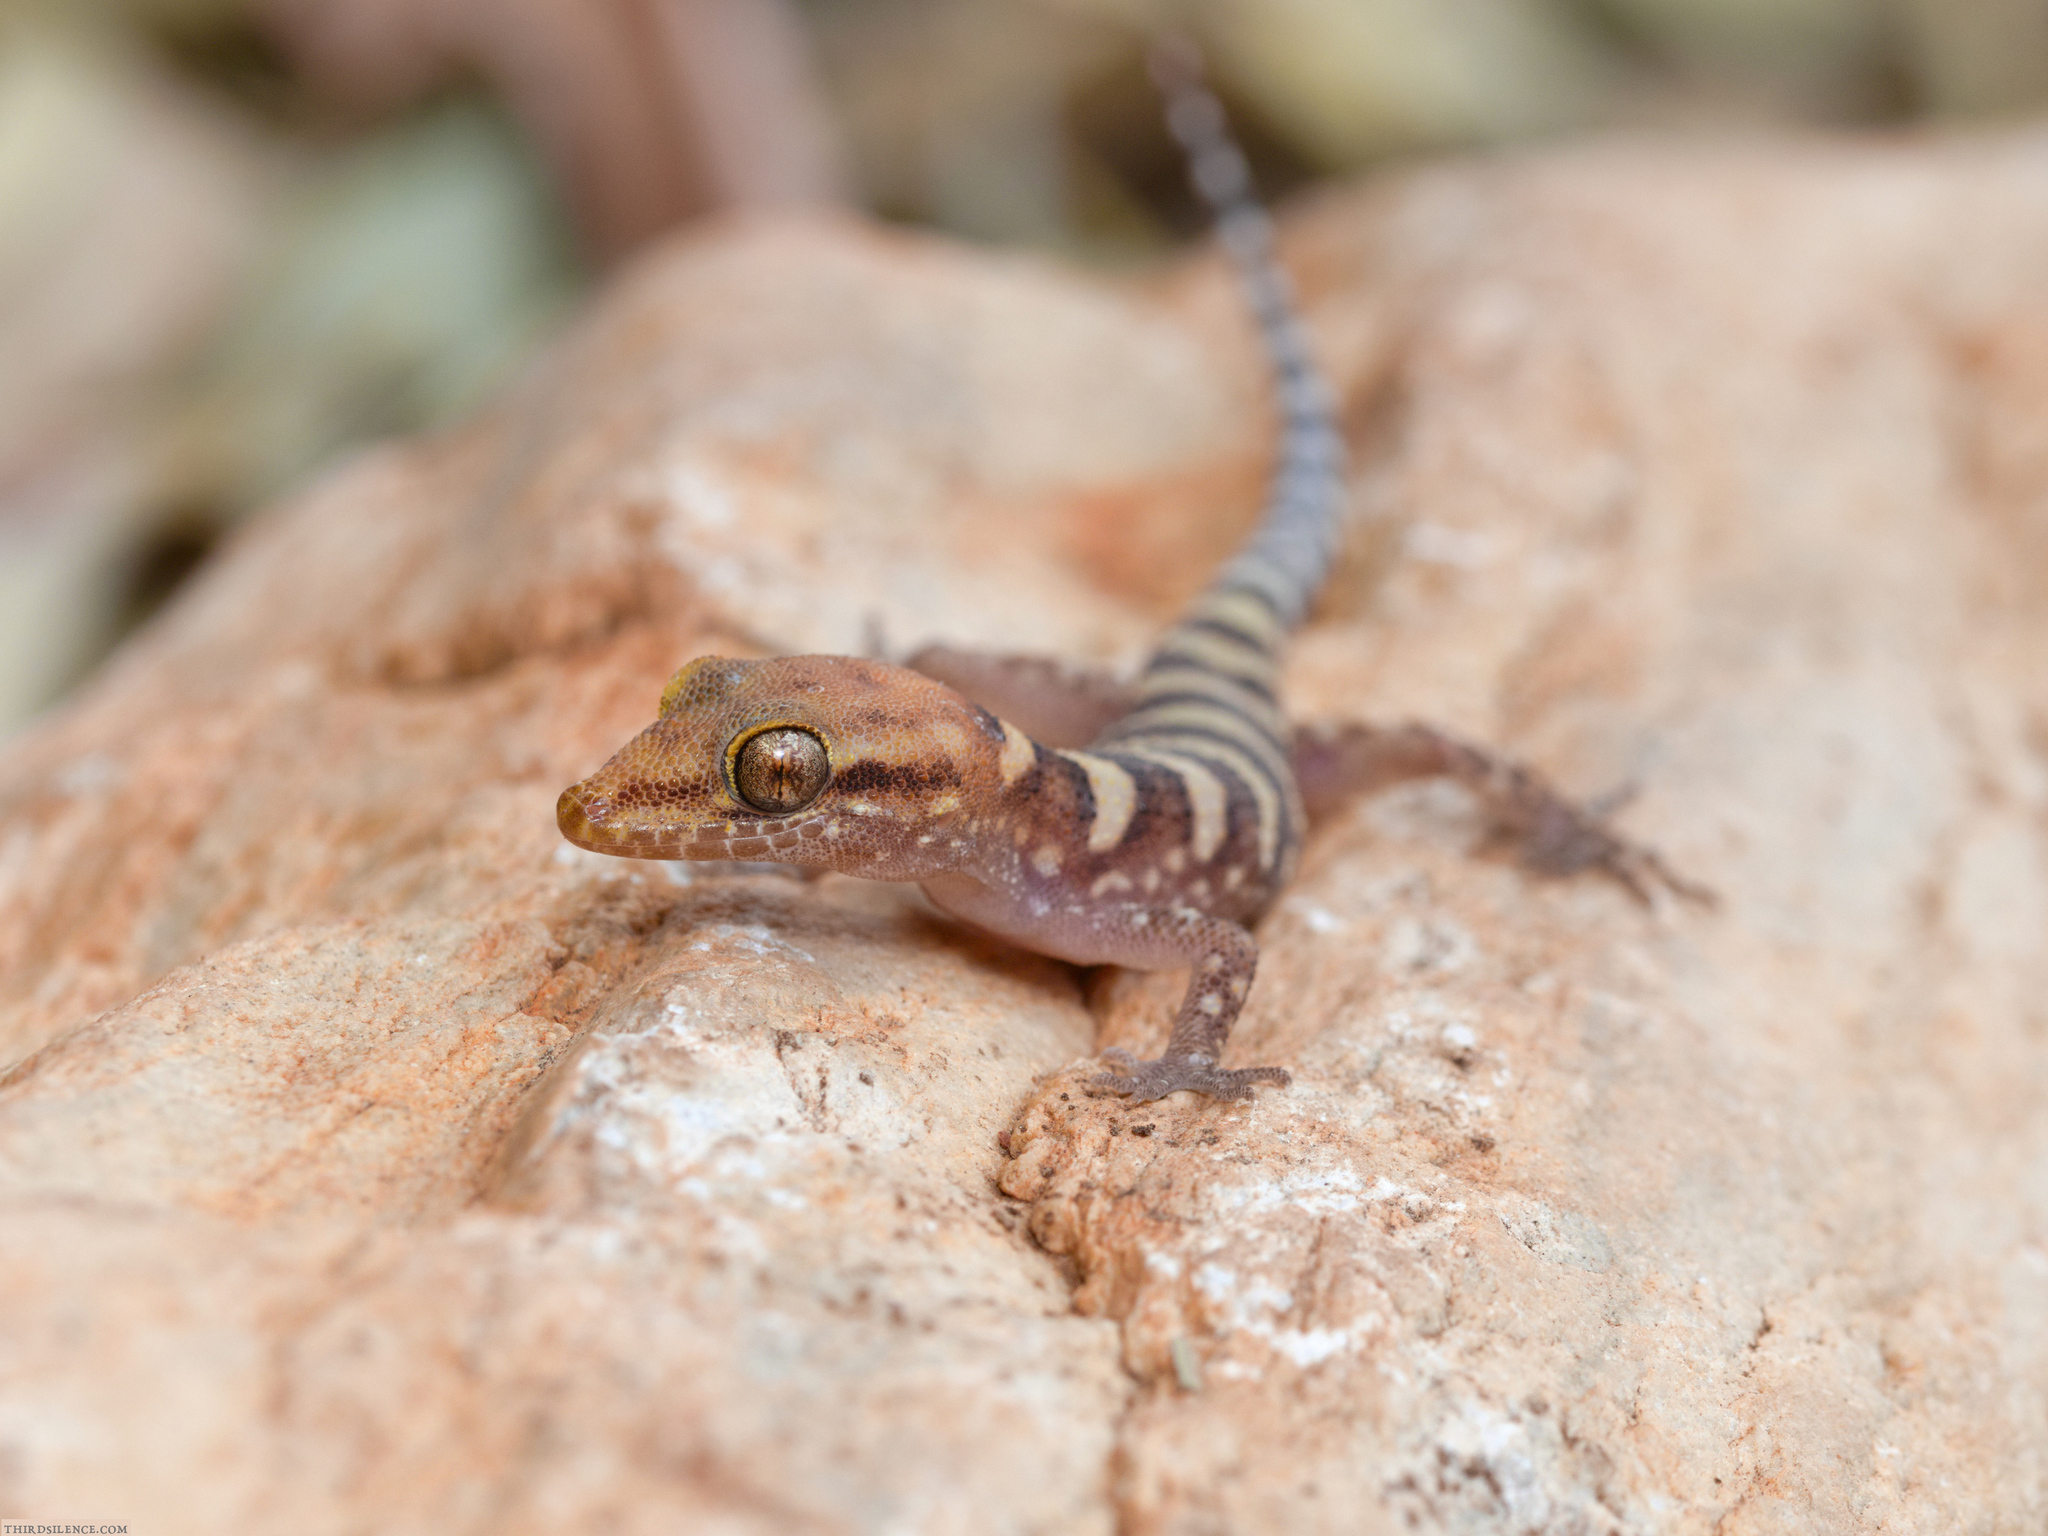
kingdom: Animalia
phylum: Chordata
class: Squamata
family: Gekkonidae
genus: Heteronotia
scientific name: Heteronotia fasciolata
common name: Pale-headed gecko
